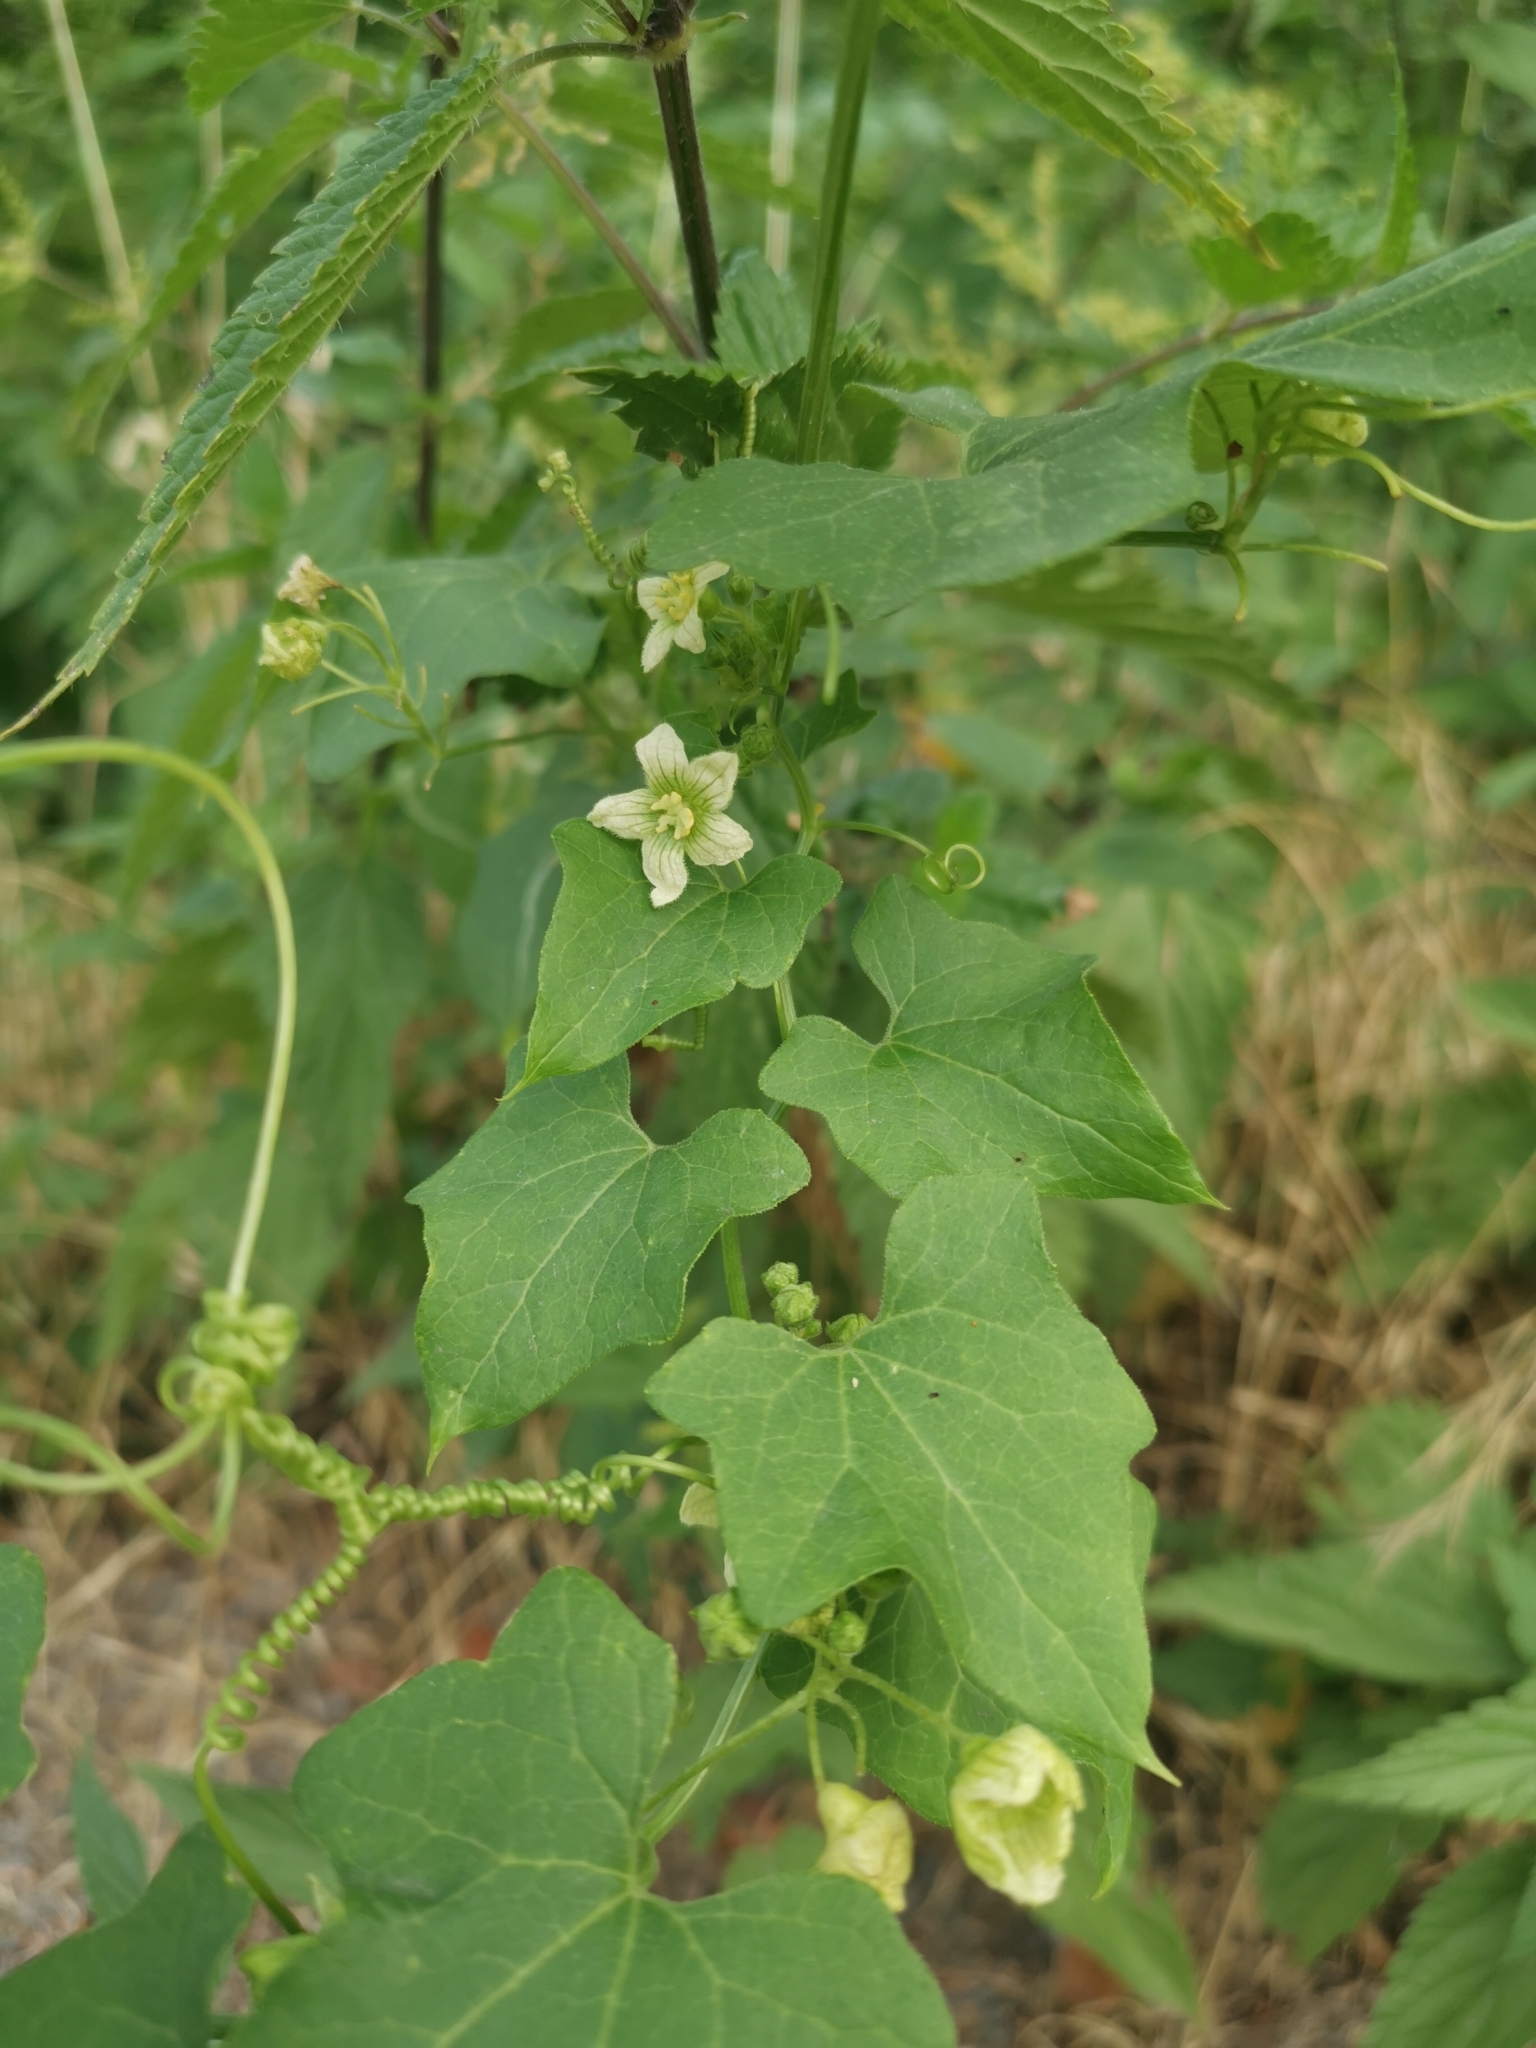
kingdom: Plantae
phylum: Tracheophyta
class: Magnoliopsida
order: Cucurbitales
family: Cucurbitaceae
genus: Bryonia
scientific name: Bryonia cretica
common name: Cretan bryony
